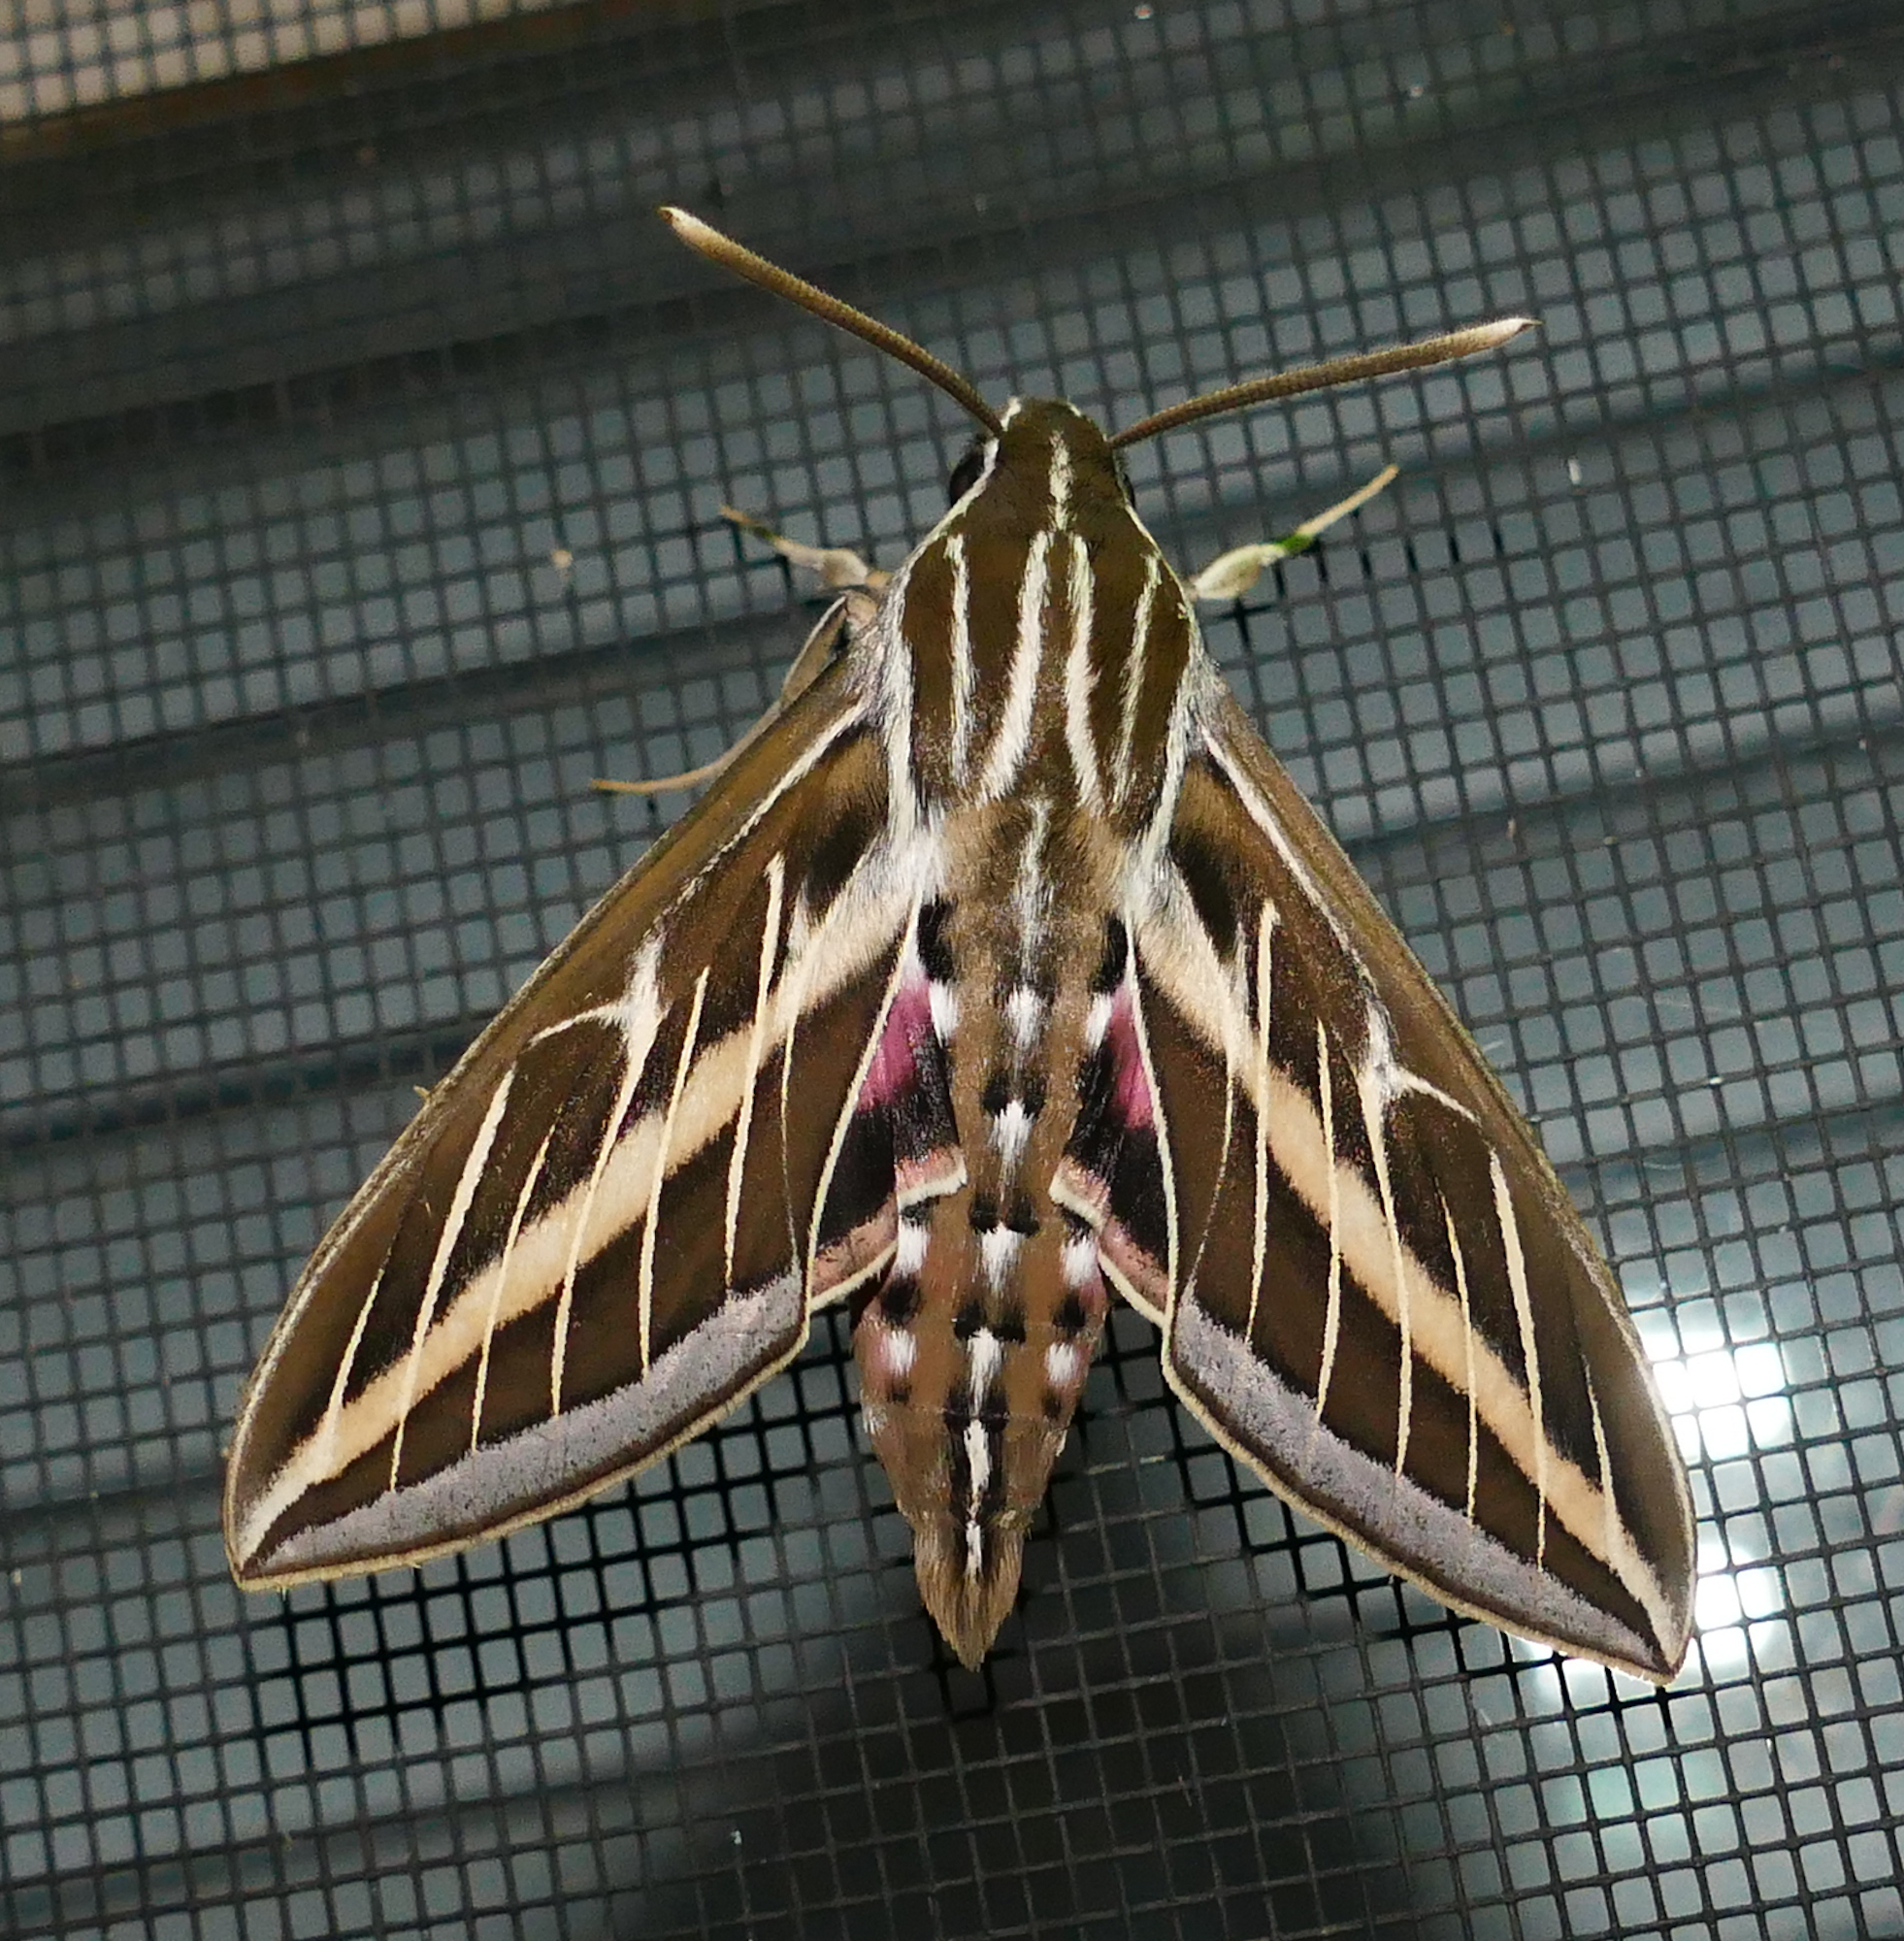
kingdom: Animalia
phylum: Arthropoda
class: Insecta
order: Lepidoptera
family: Sphingidae
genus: Hyles
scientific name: Hyles lineata
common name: White-lined sphinx
